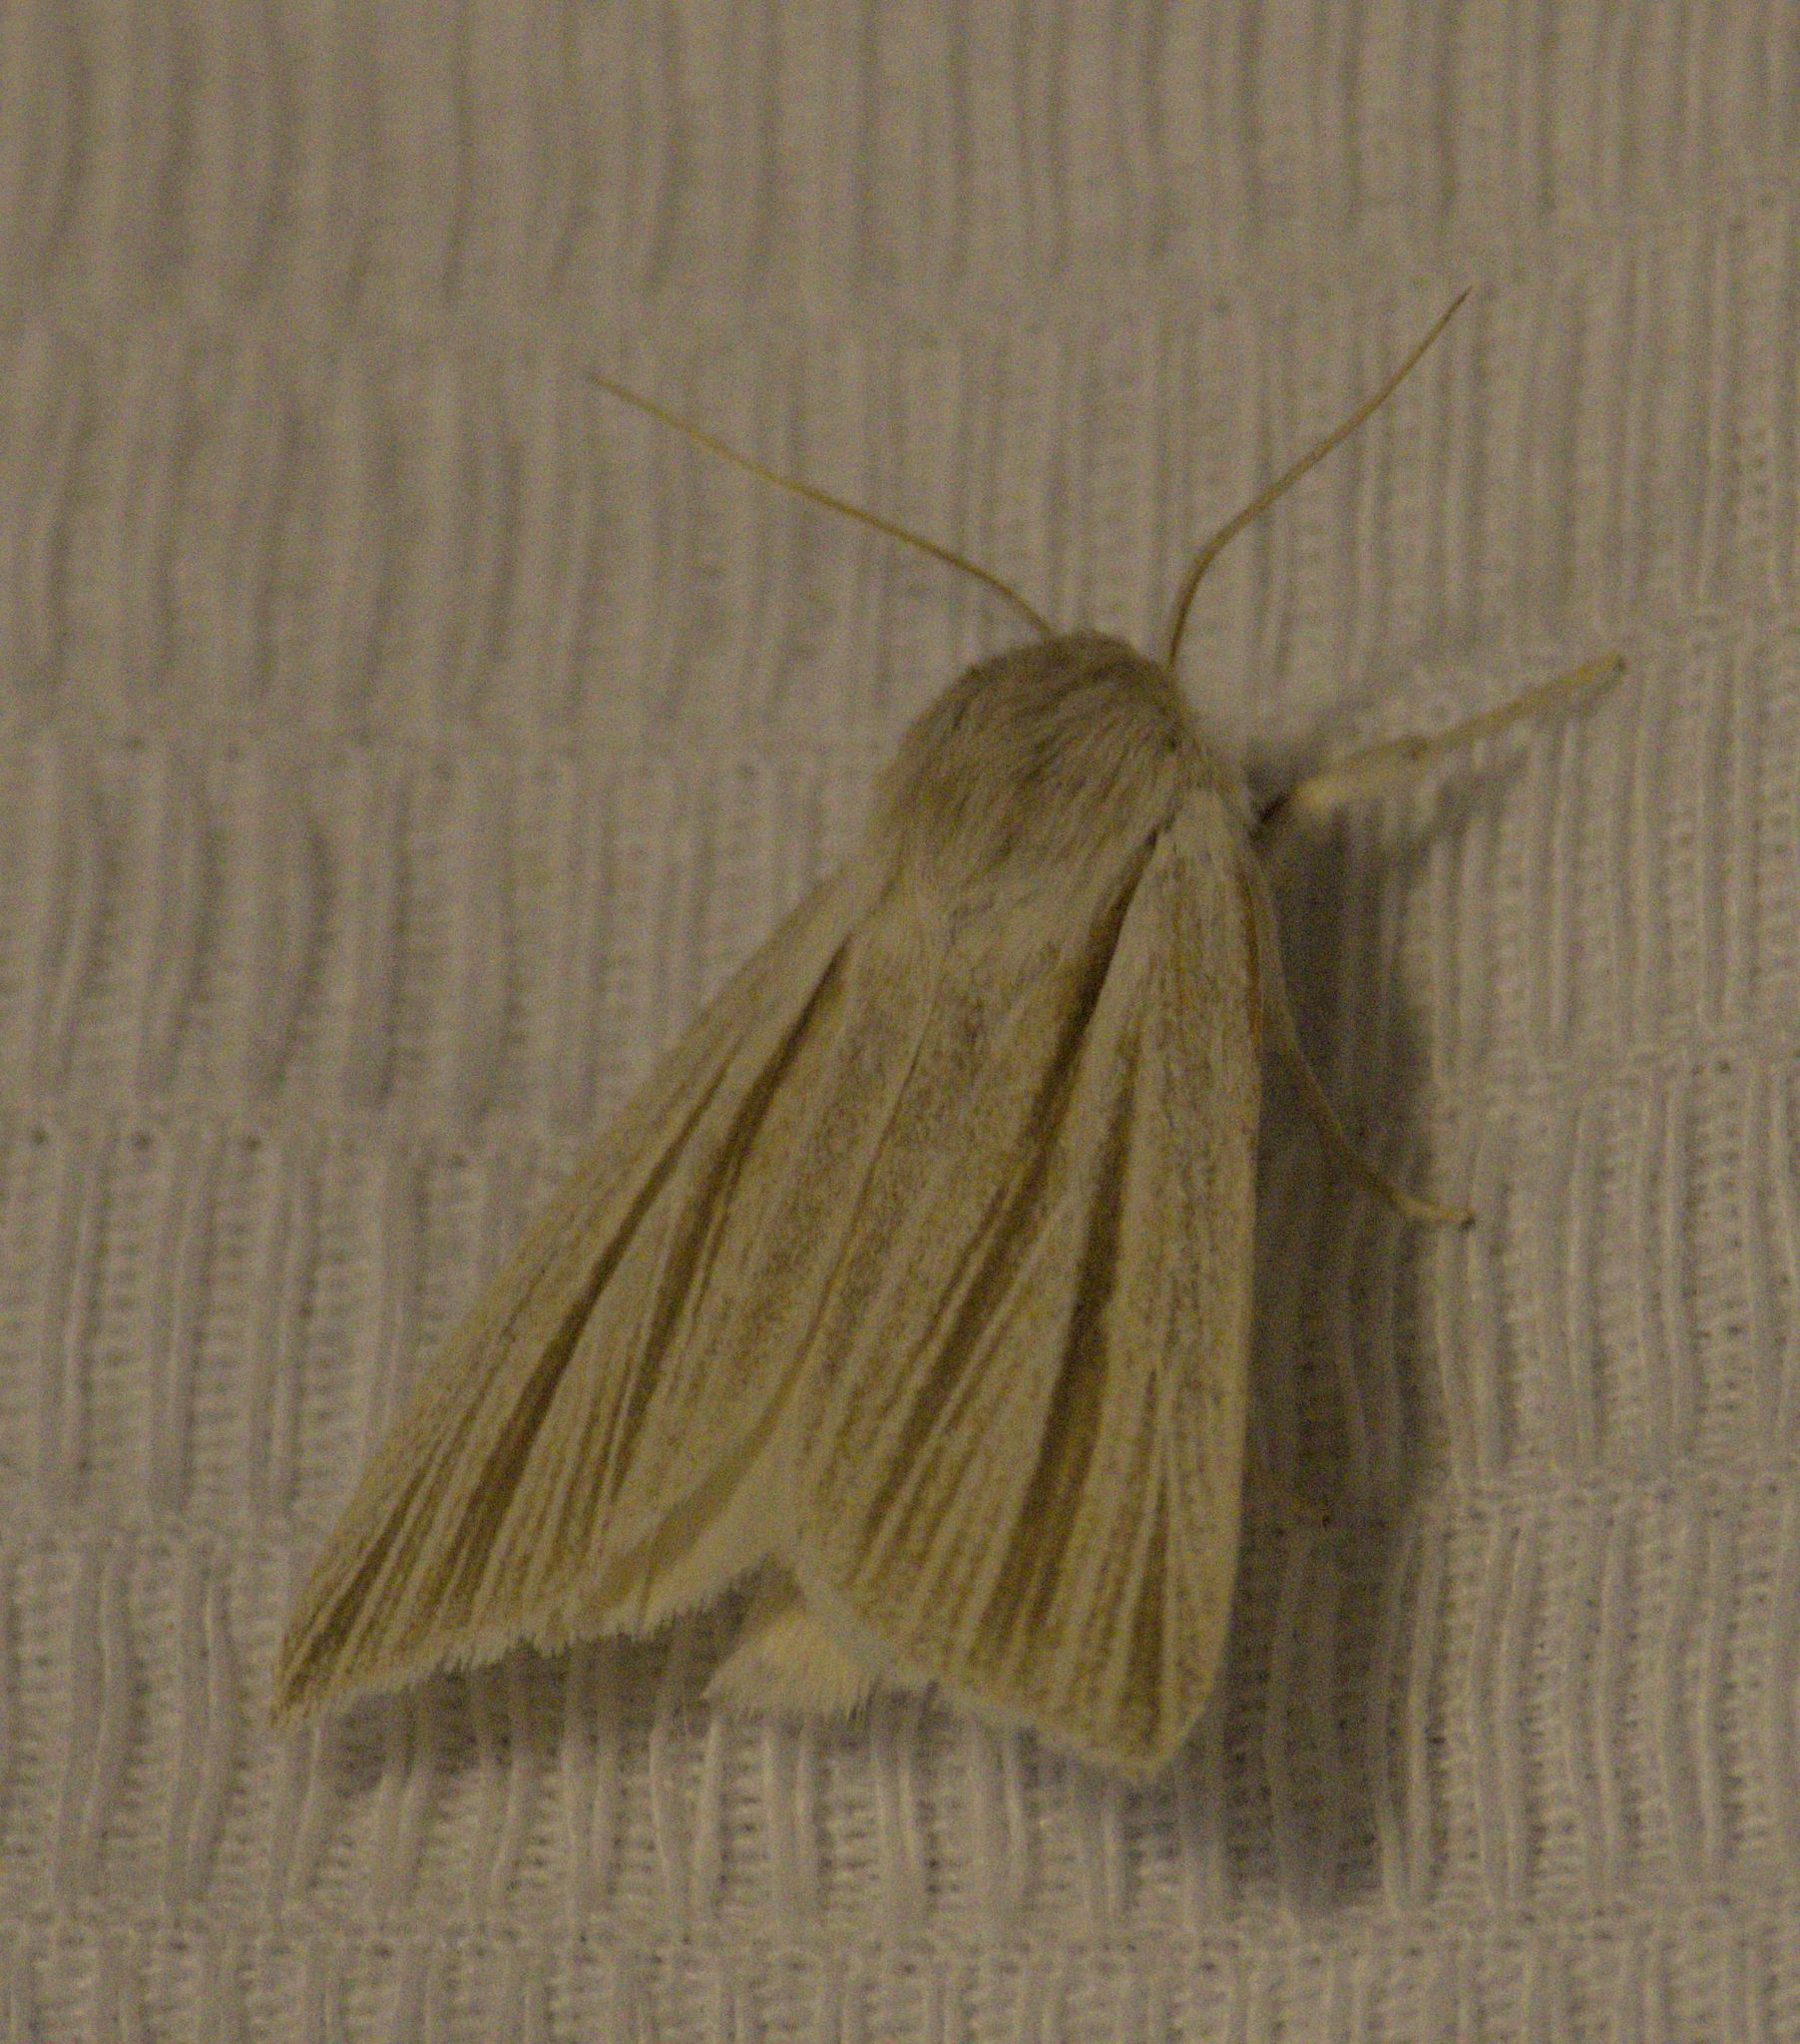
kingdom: Animalia
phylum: Arthropoda
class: Insecta
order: Lepidoptera
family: Noctuidae
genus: Acronicta
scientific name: Acronicta insularis
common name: Henry's marsh moth
